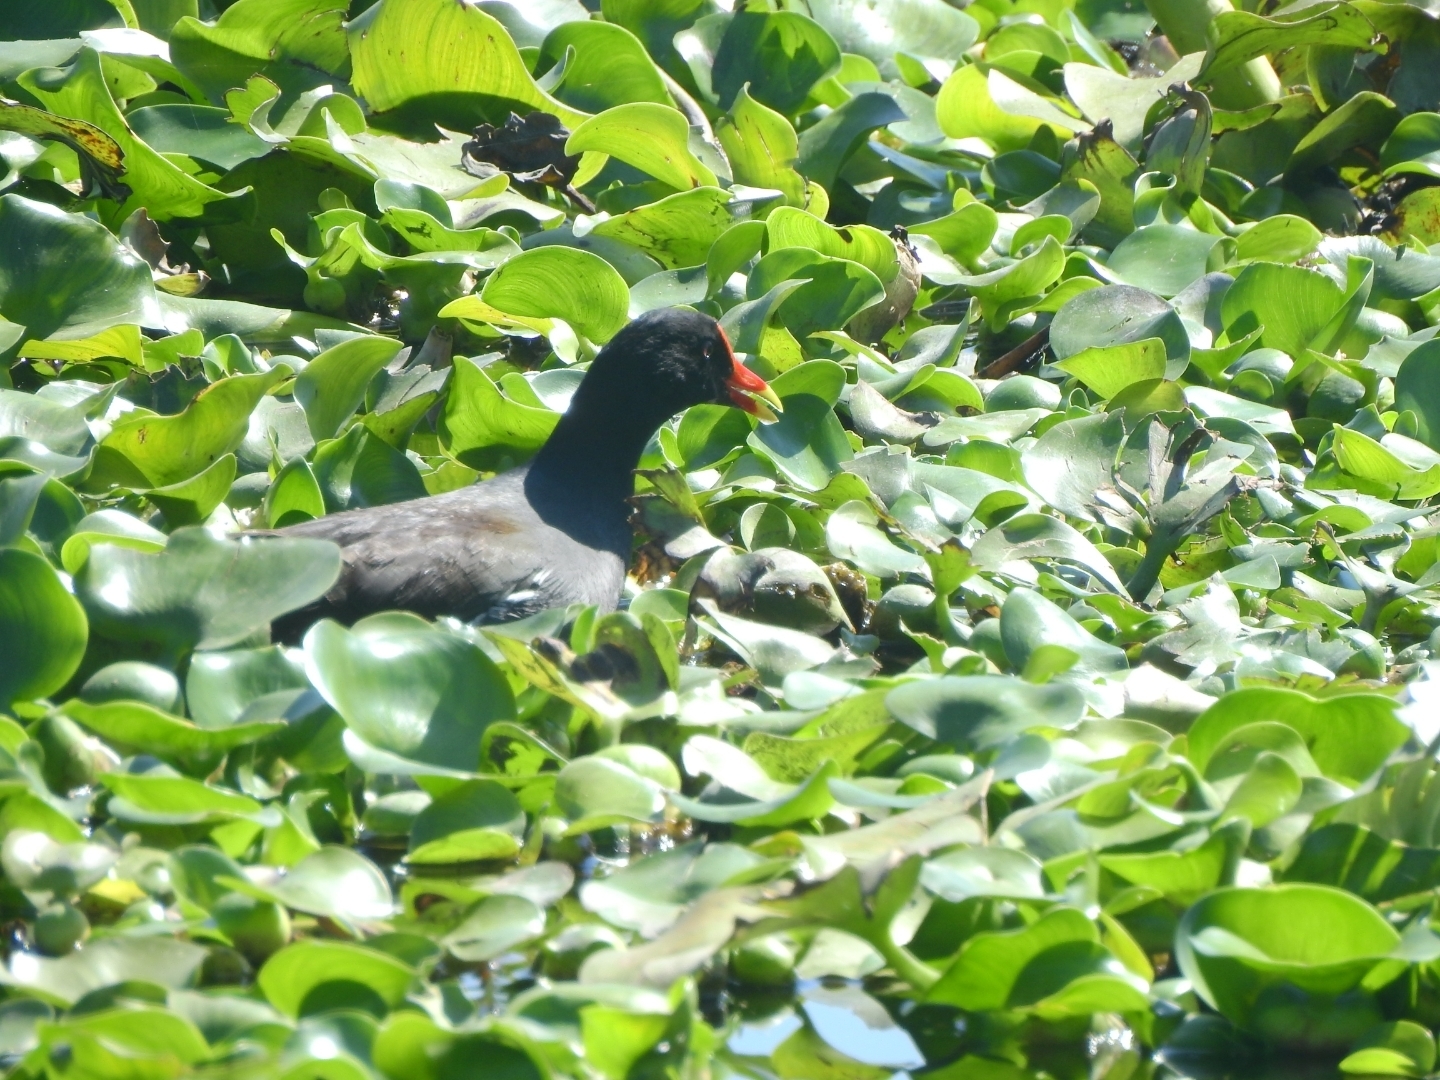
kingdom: Animalia
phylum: Chordata
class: Aves
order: Gruiformes
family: Rallidae
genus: Gallinula
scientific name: Gallinula chloropus
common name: Common moorhen
